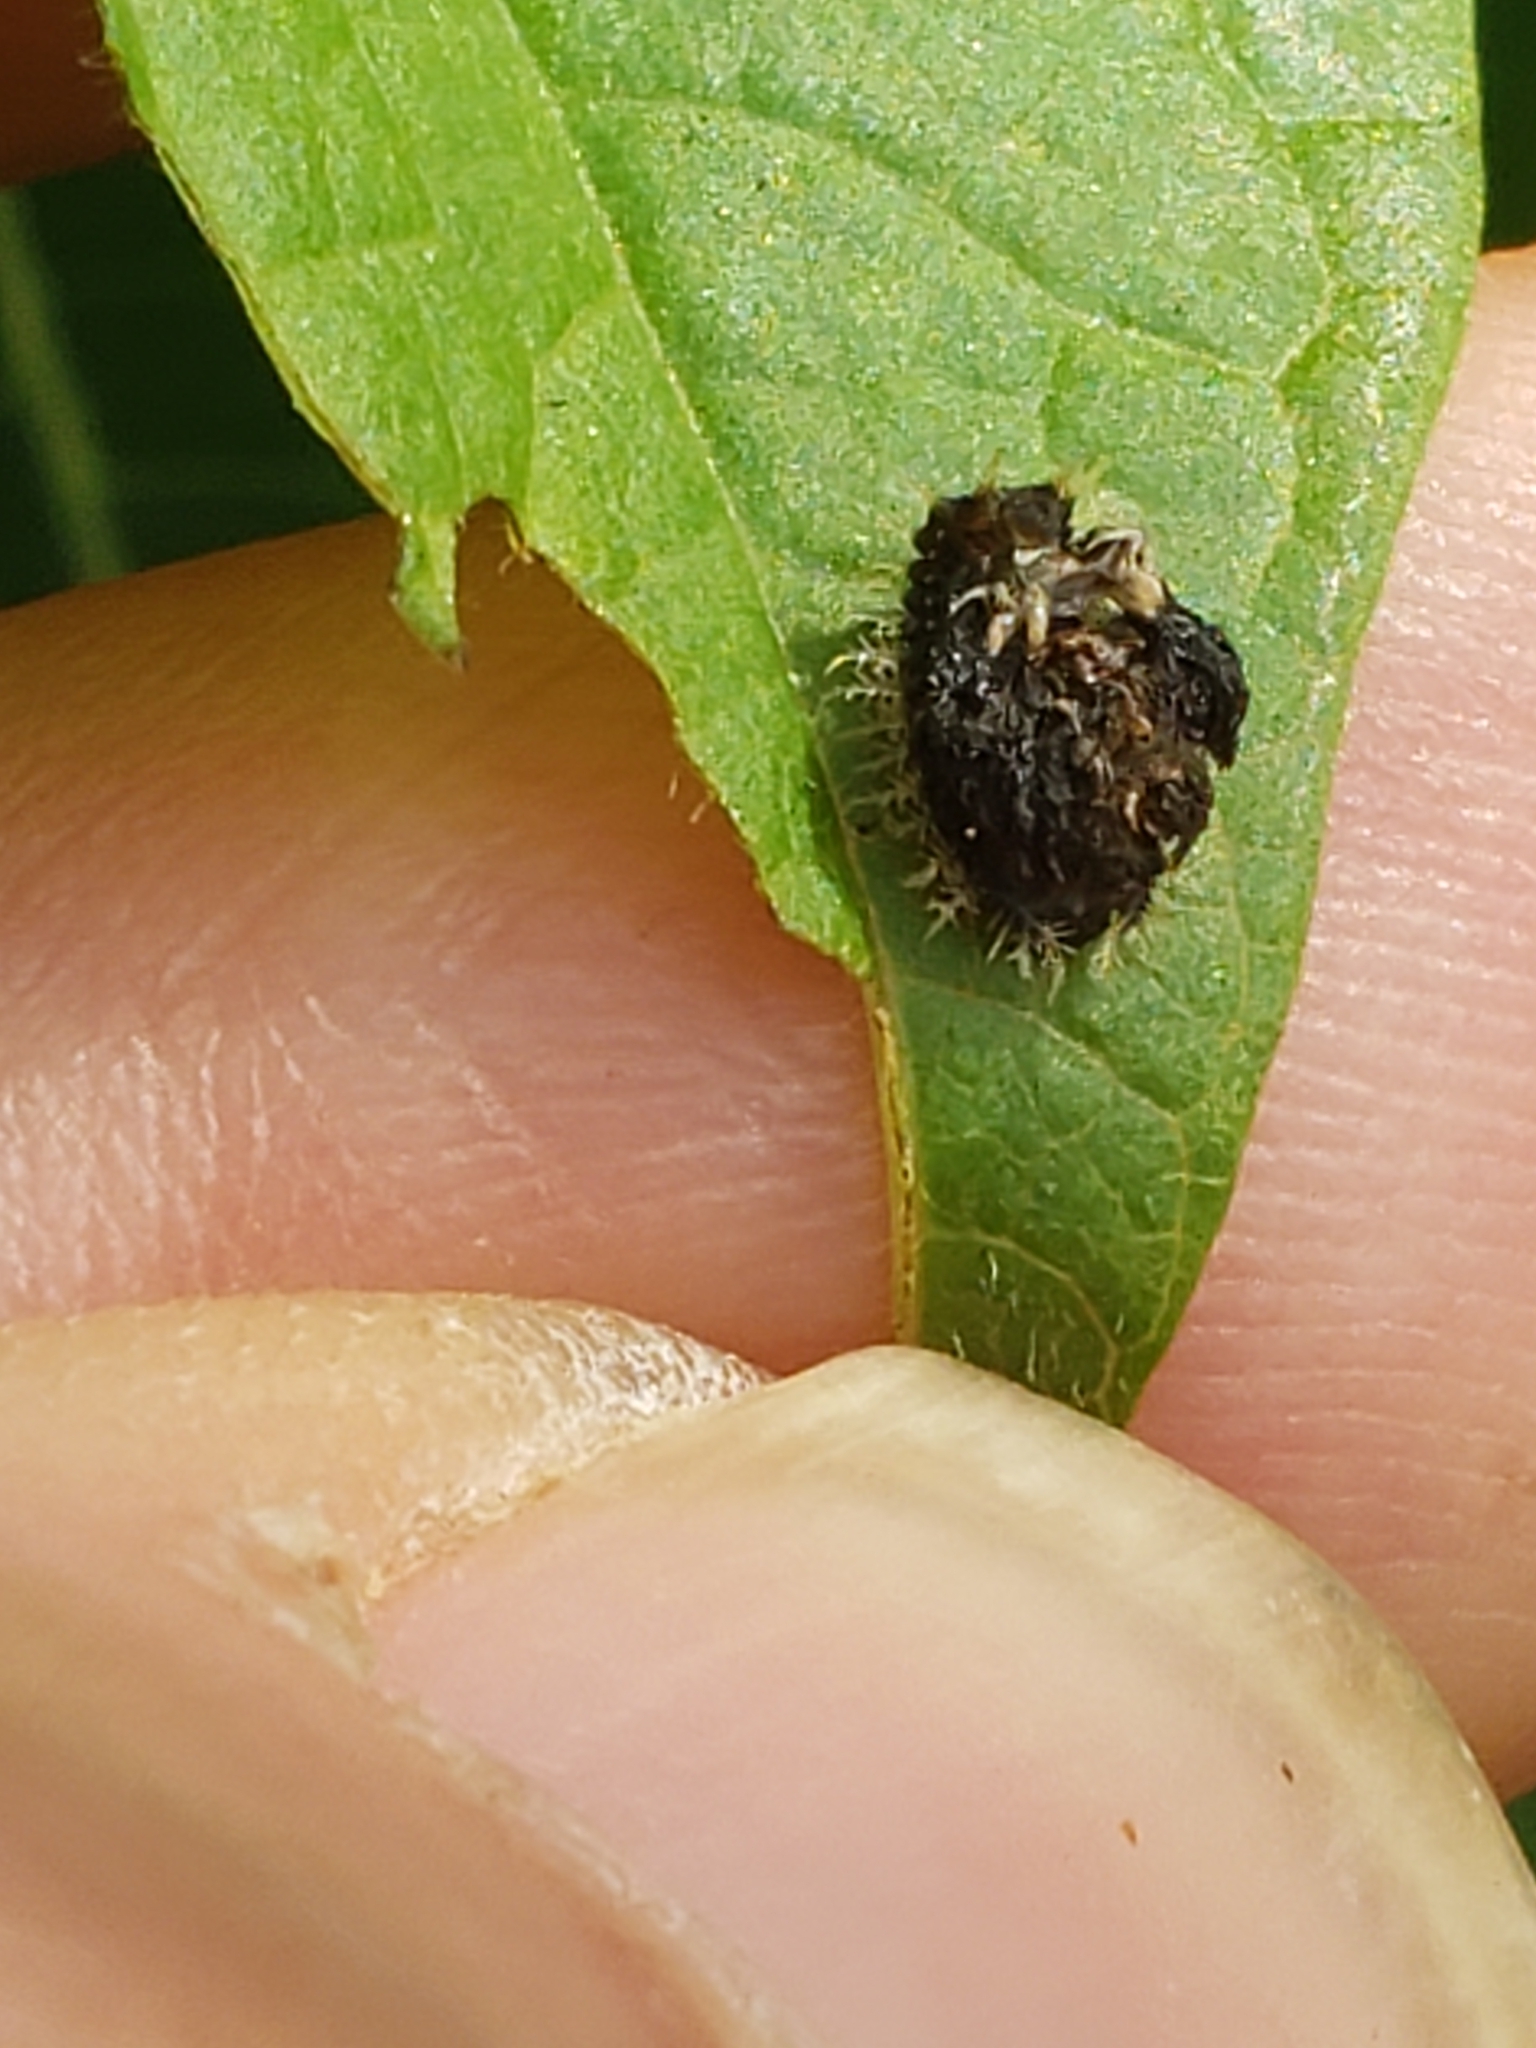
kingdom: Animalia
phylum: Arthropoda
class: Insecta
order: Coleoptera
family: Chrysomelidae
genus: Charidotella
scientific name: Charidotella sexpunctata
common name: Golden tortoise beetle
